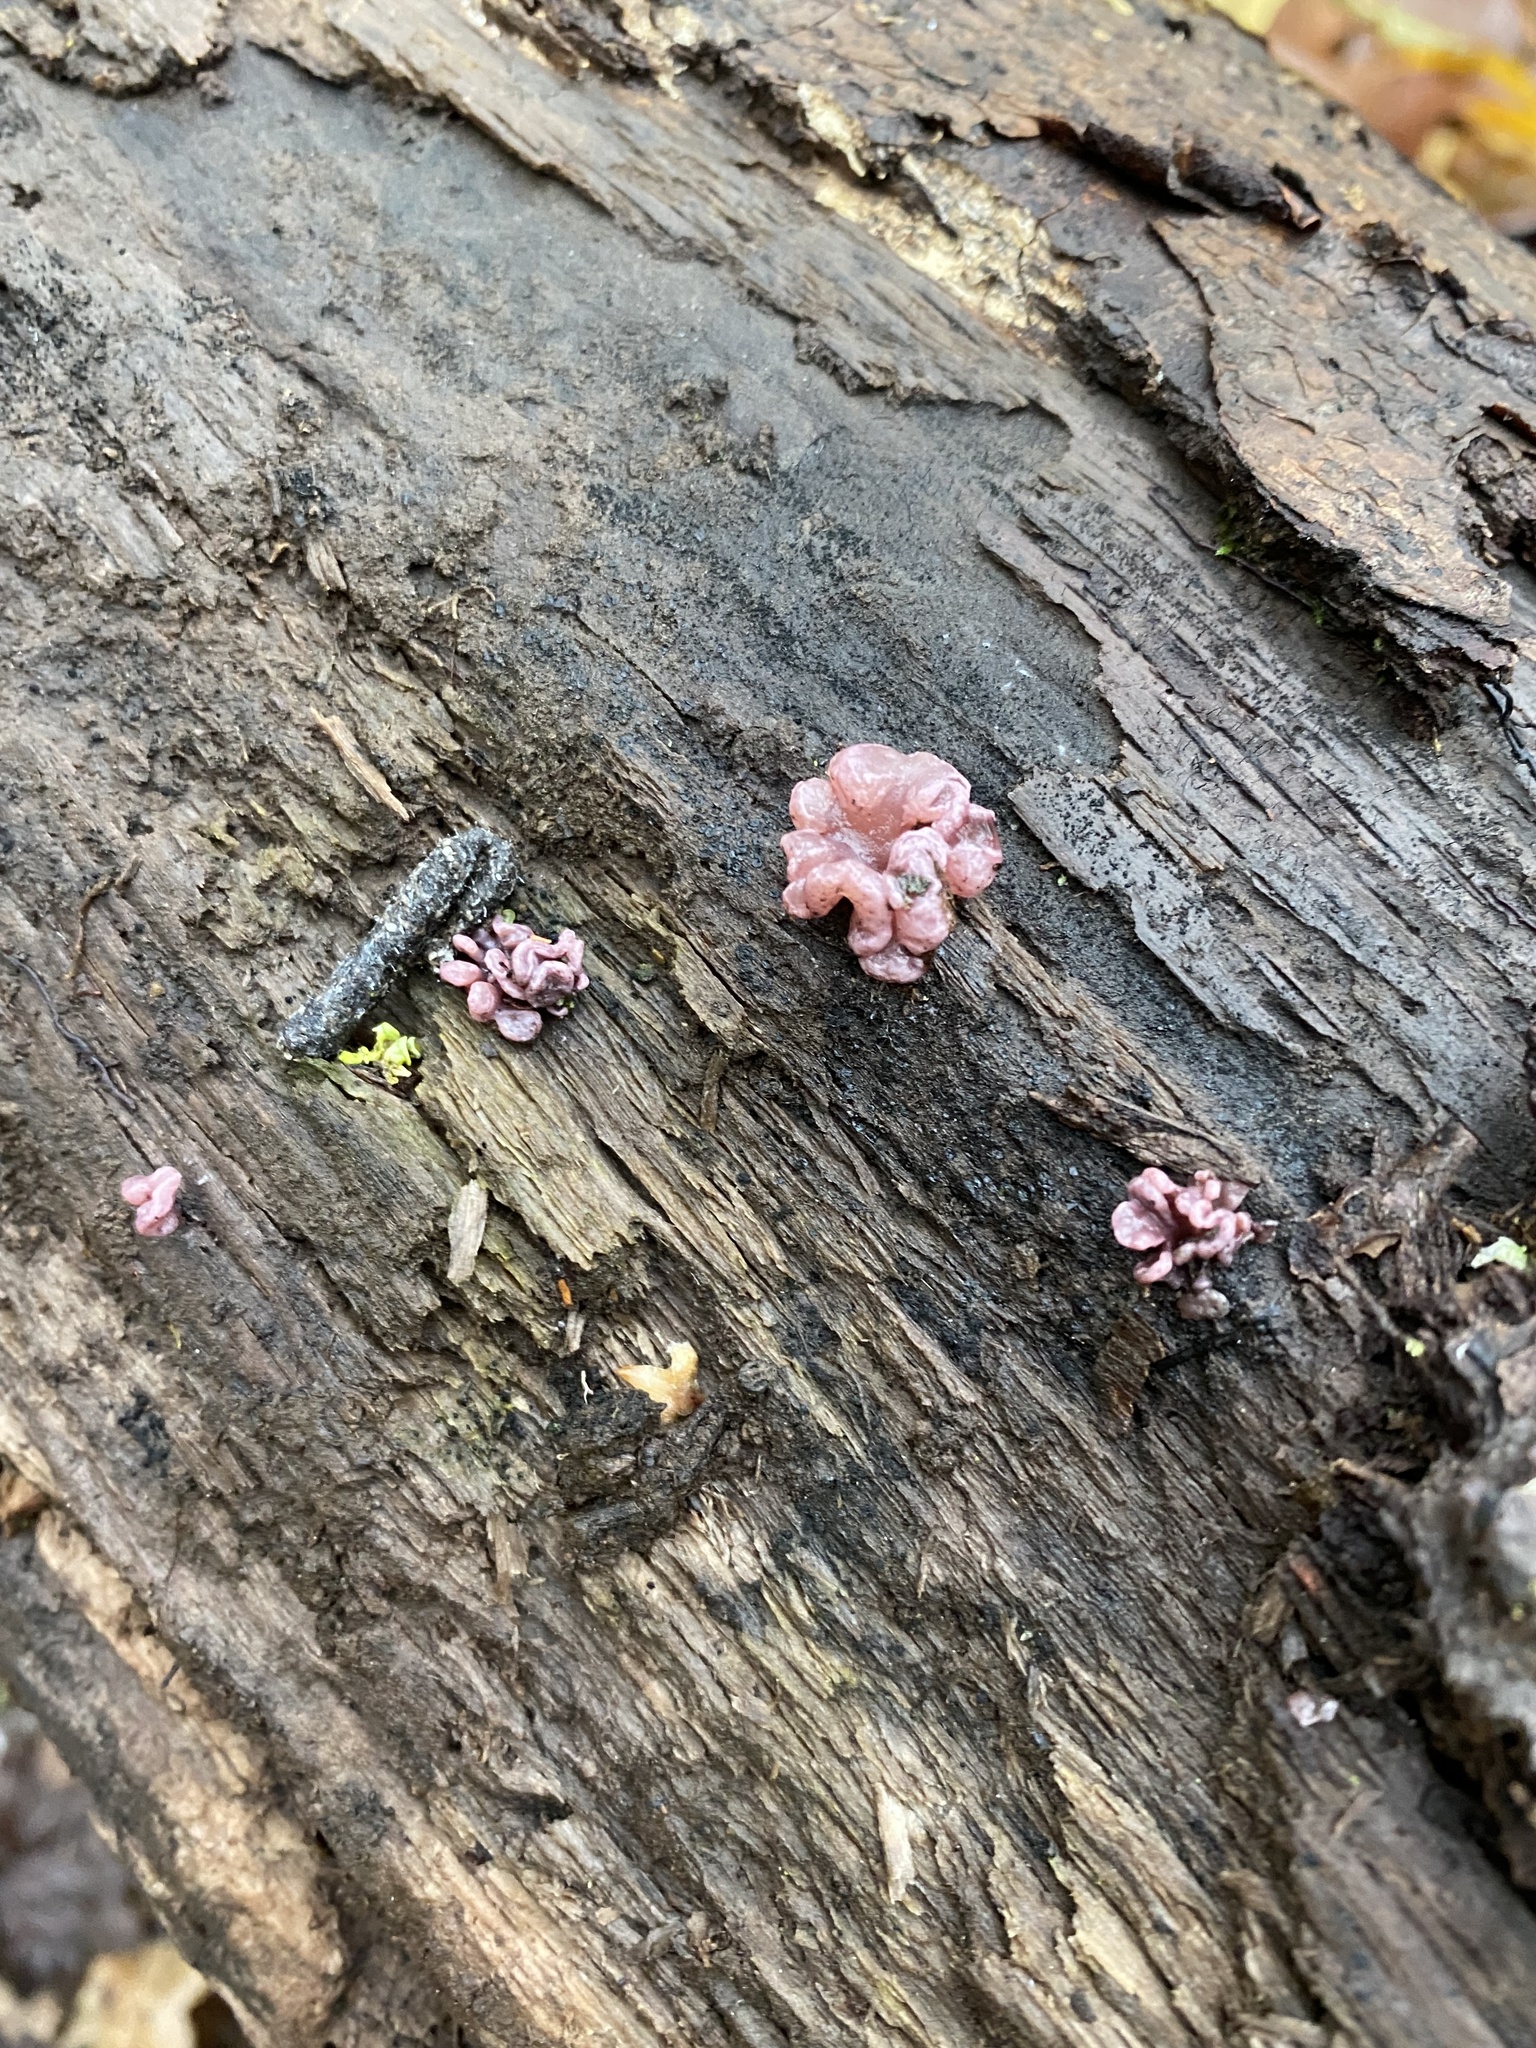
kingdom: Fungi
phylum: Ascomycota
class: Leotiomycetes
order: Helotiales
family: Gelatinodiscaceae
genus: Ascocoryne
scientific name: Ascocoryne sarcoides
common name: Purple jellydisc
